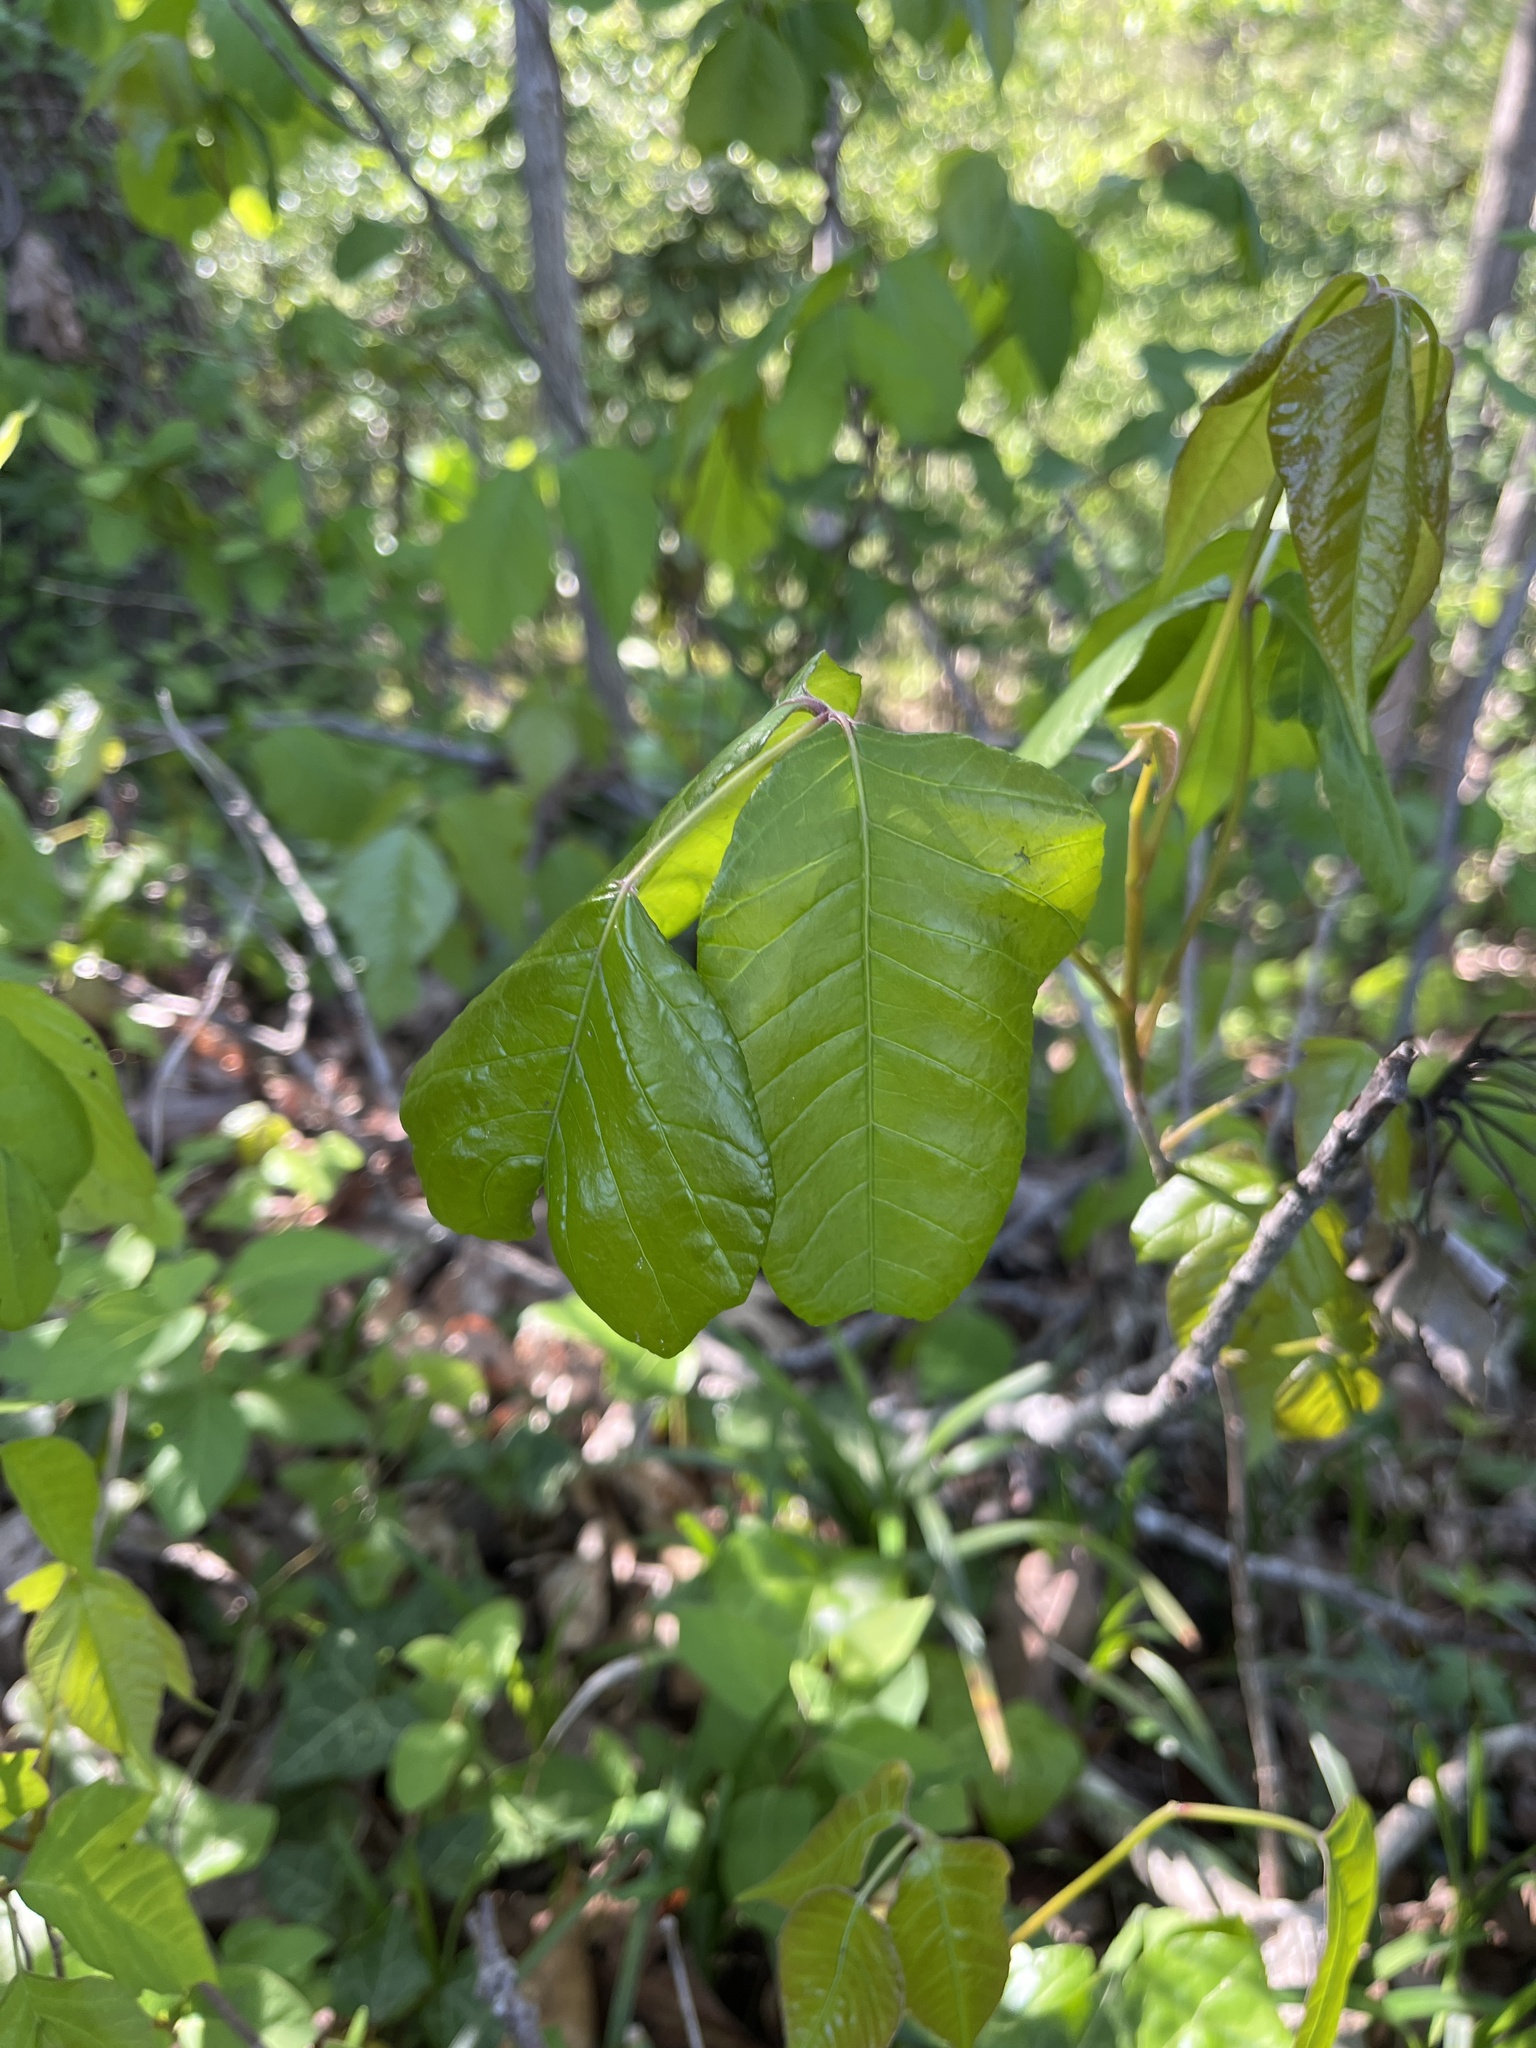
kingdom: Plantae
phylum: Tracheophyta
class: Magnoliopsida
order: Sapindales
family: Anacardiaceae
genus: Toxicodendron
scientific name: Toxicodendron radicans
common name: Poison ivy
